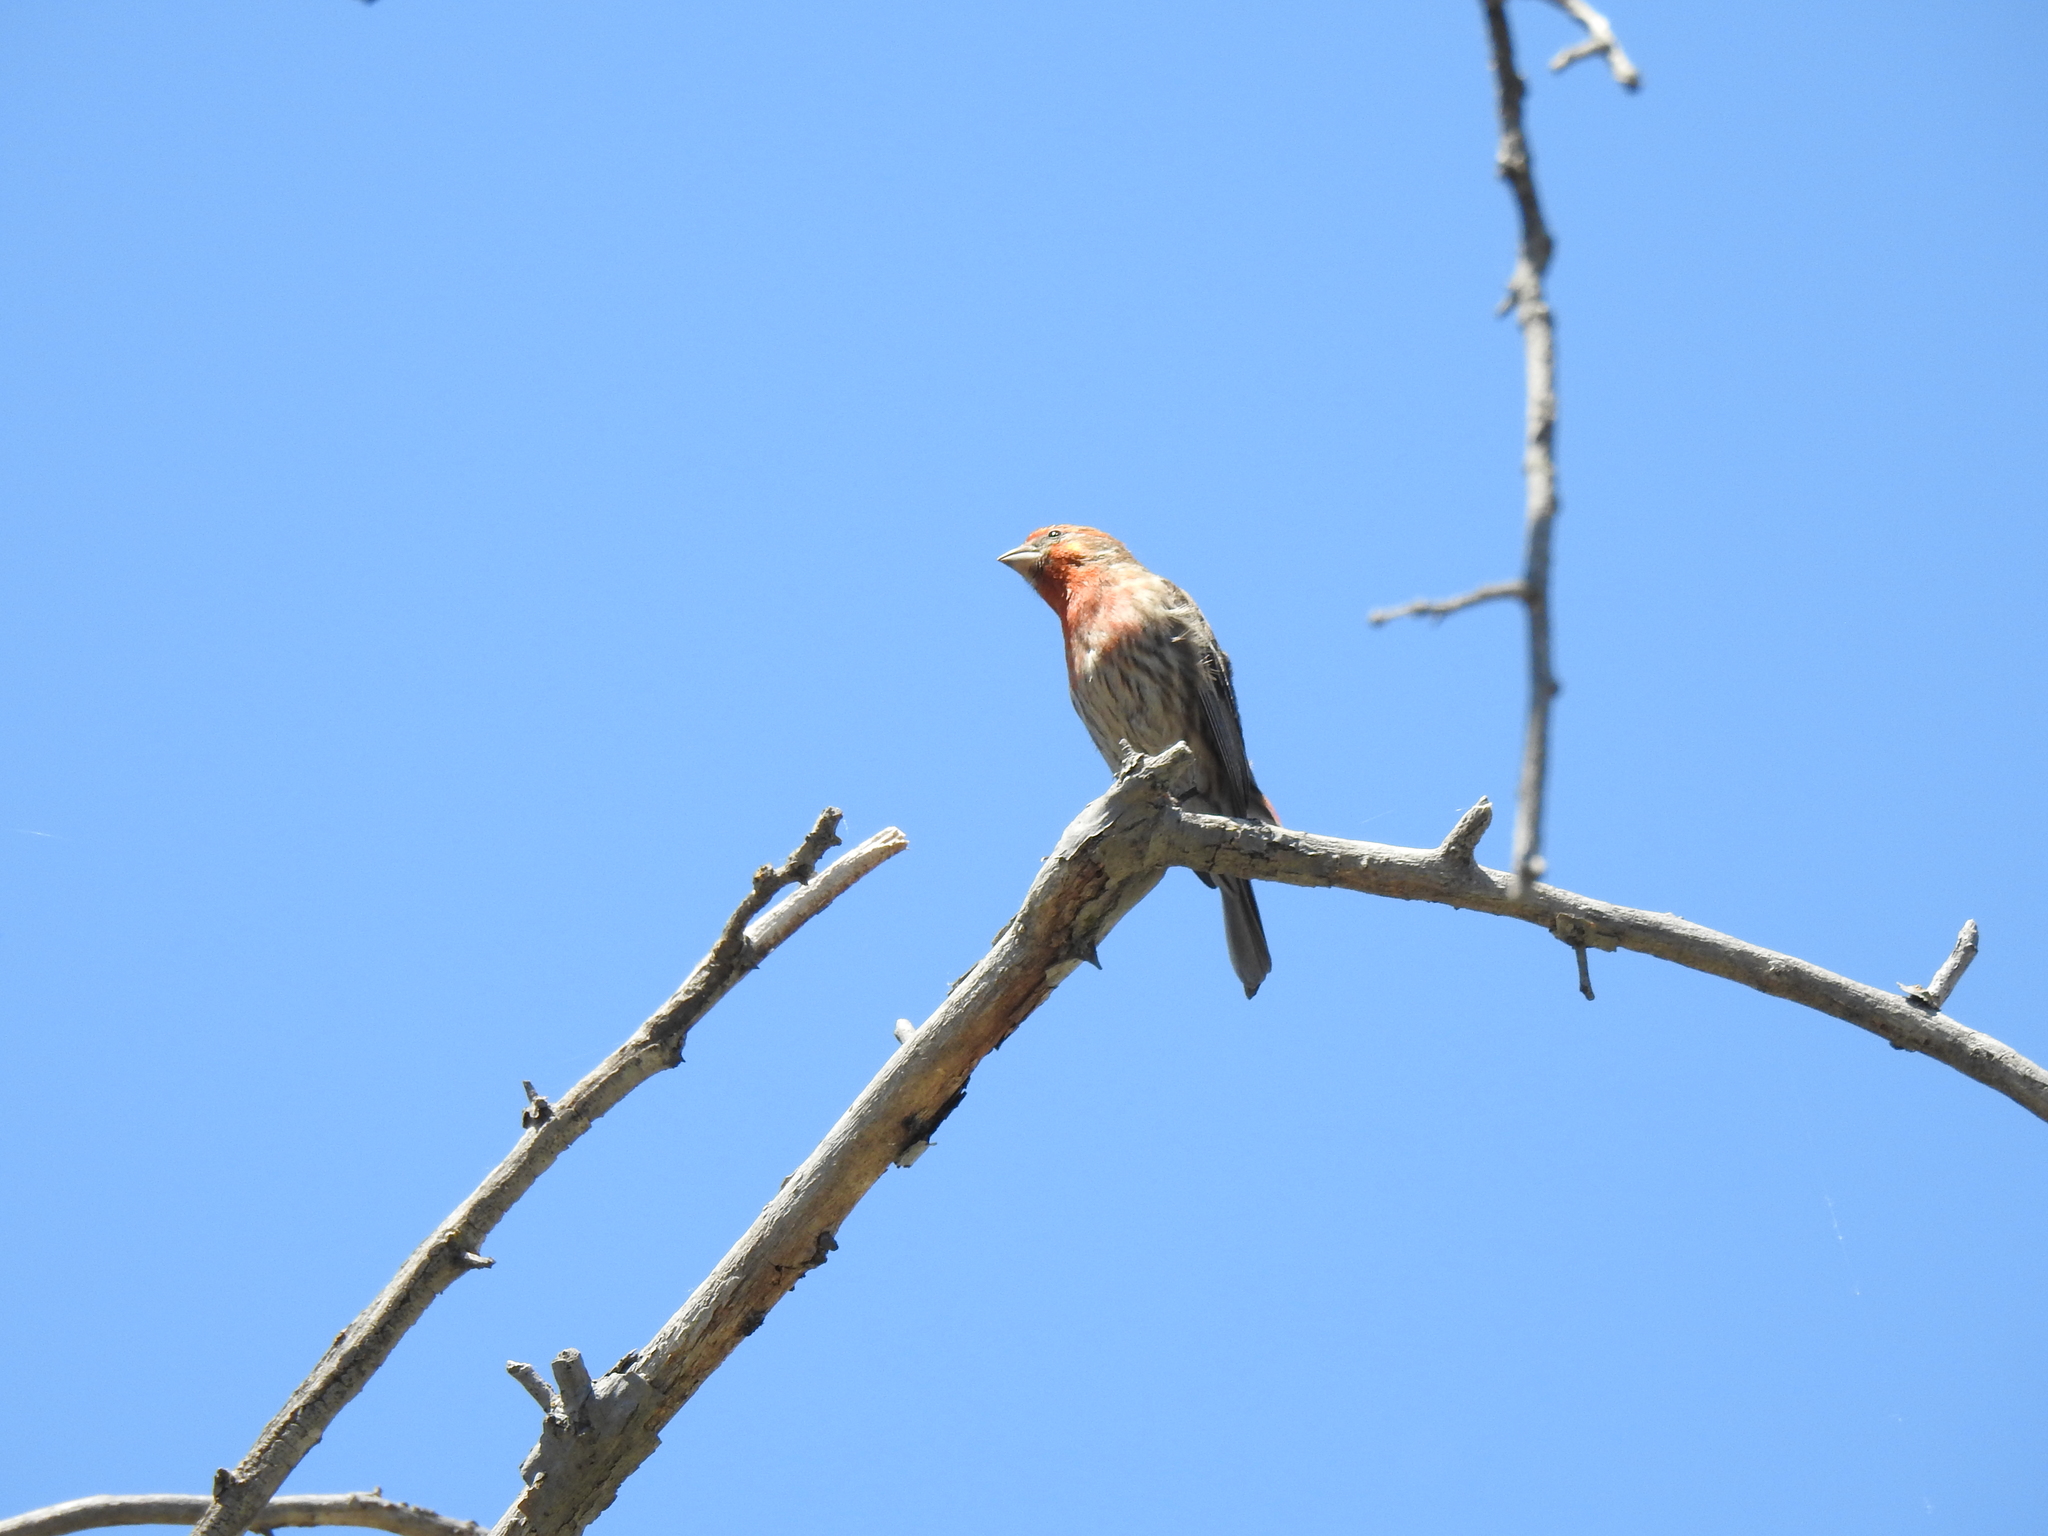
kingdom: Animalia
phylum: Chordata
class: Aves
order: Passeriformes
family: Fringillidae
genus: Haemorhous
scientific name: Haemorhous mexicanus
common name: House finch
